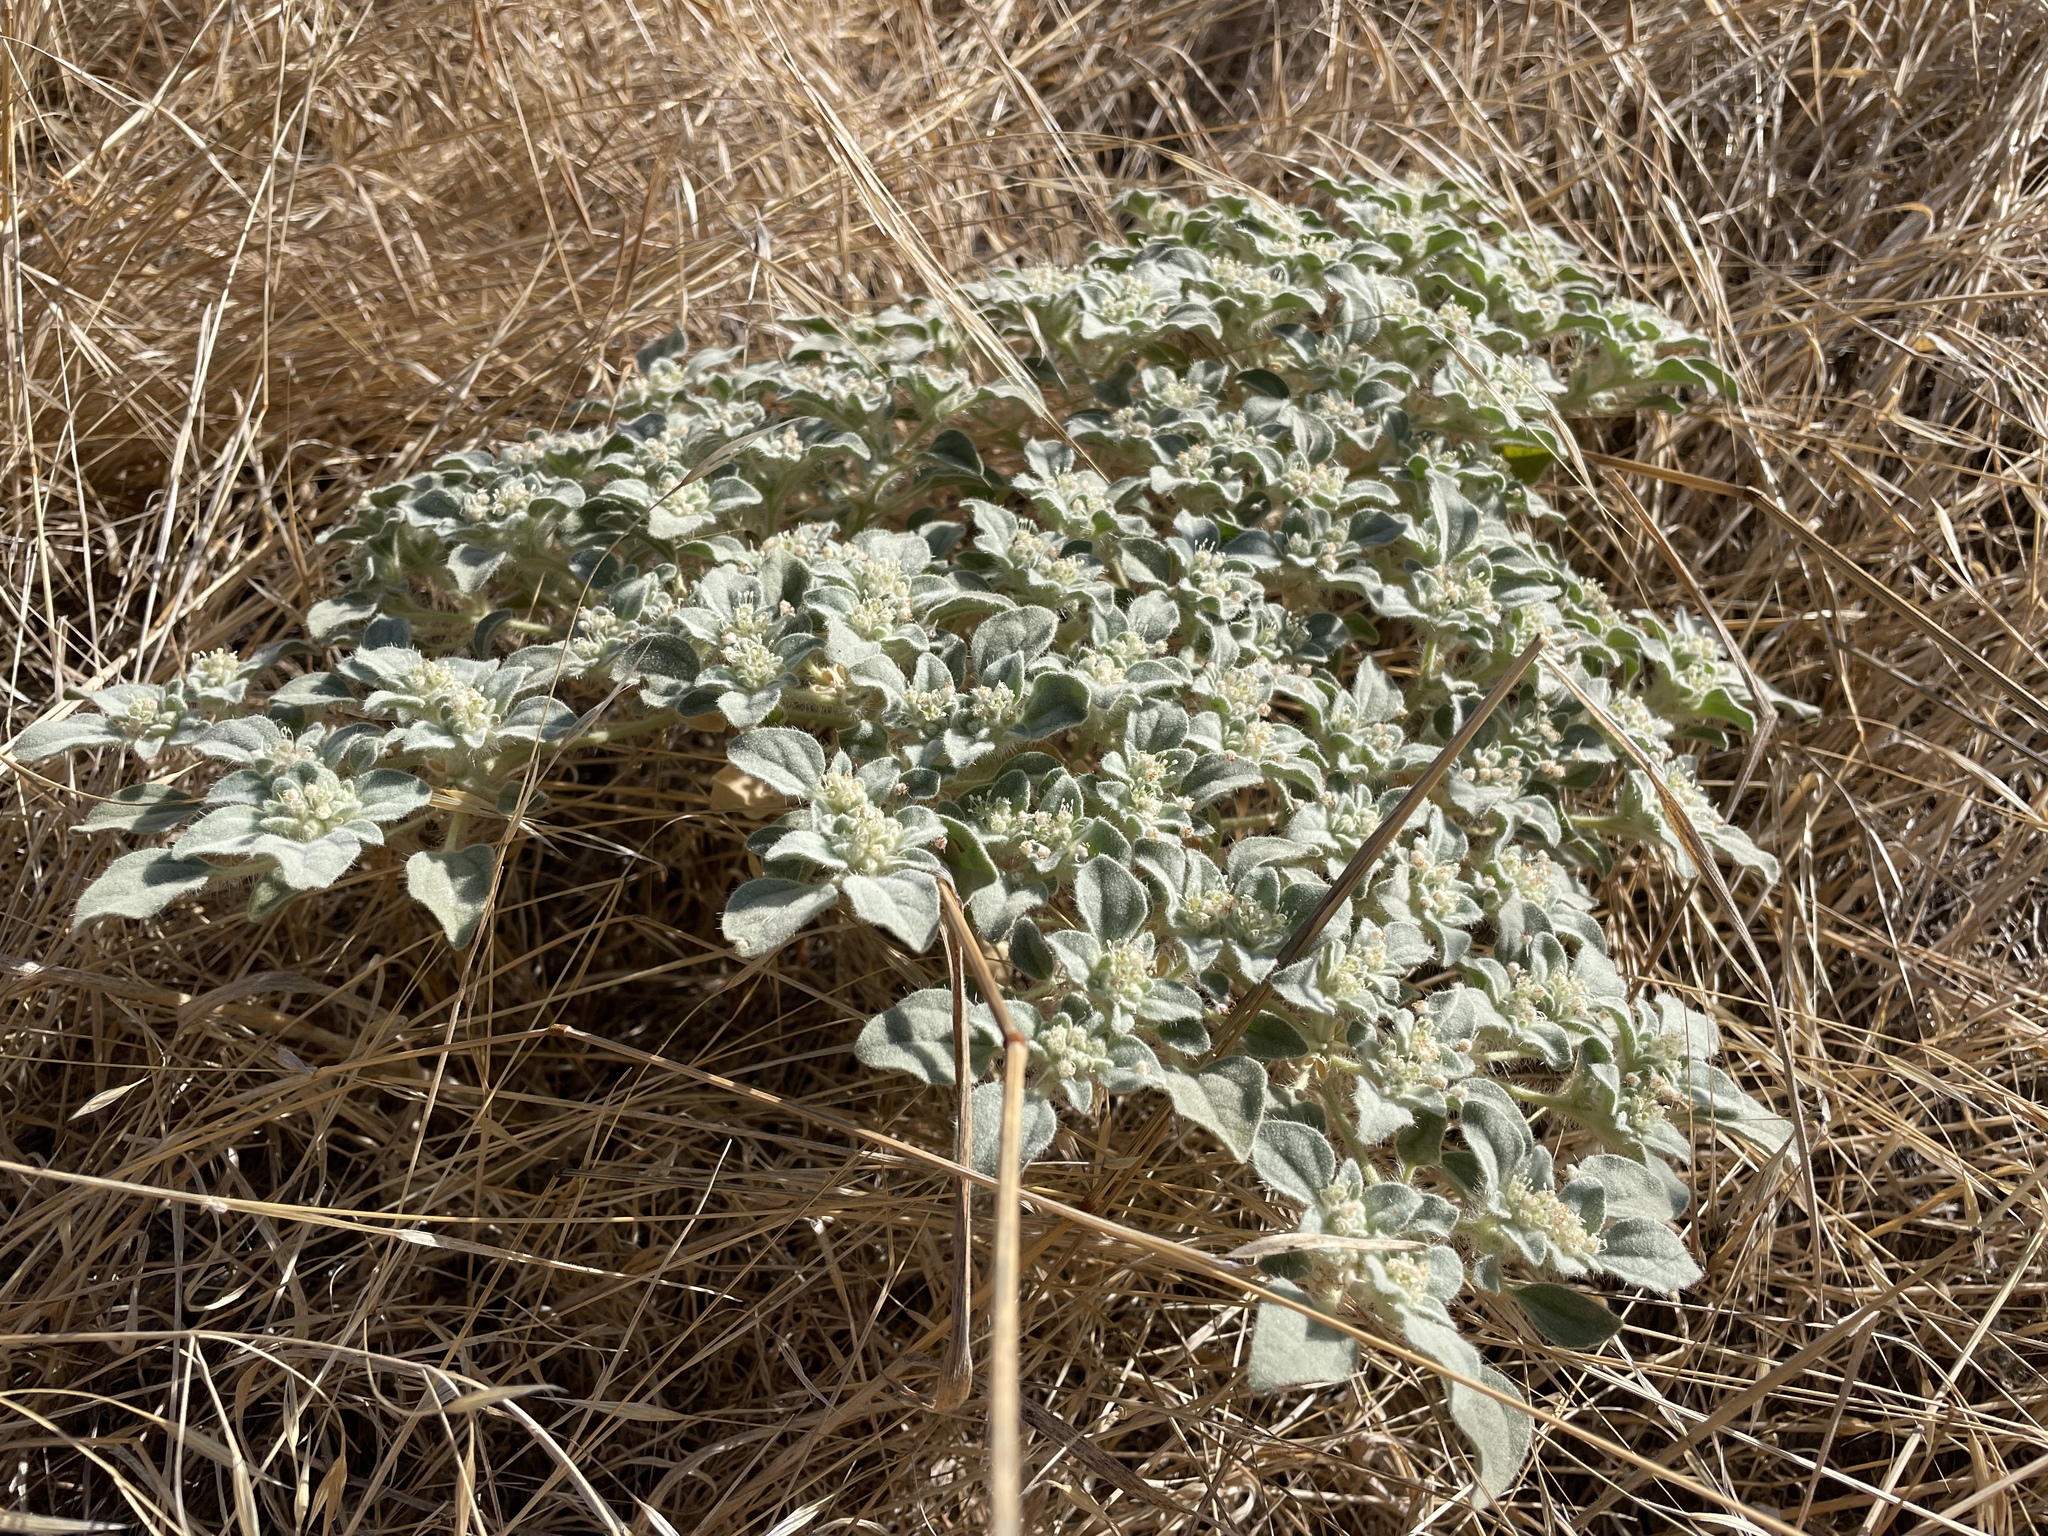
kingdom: Plantae
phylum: Tracheophyta
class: Magnoliopsida
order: Malpighiales
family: Euphorbiaceae
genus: Croton
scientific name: Croton setiger
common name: Dove weed
